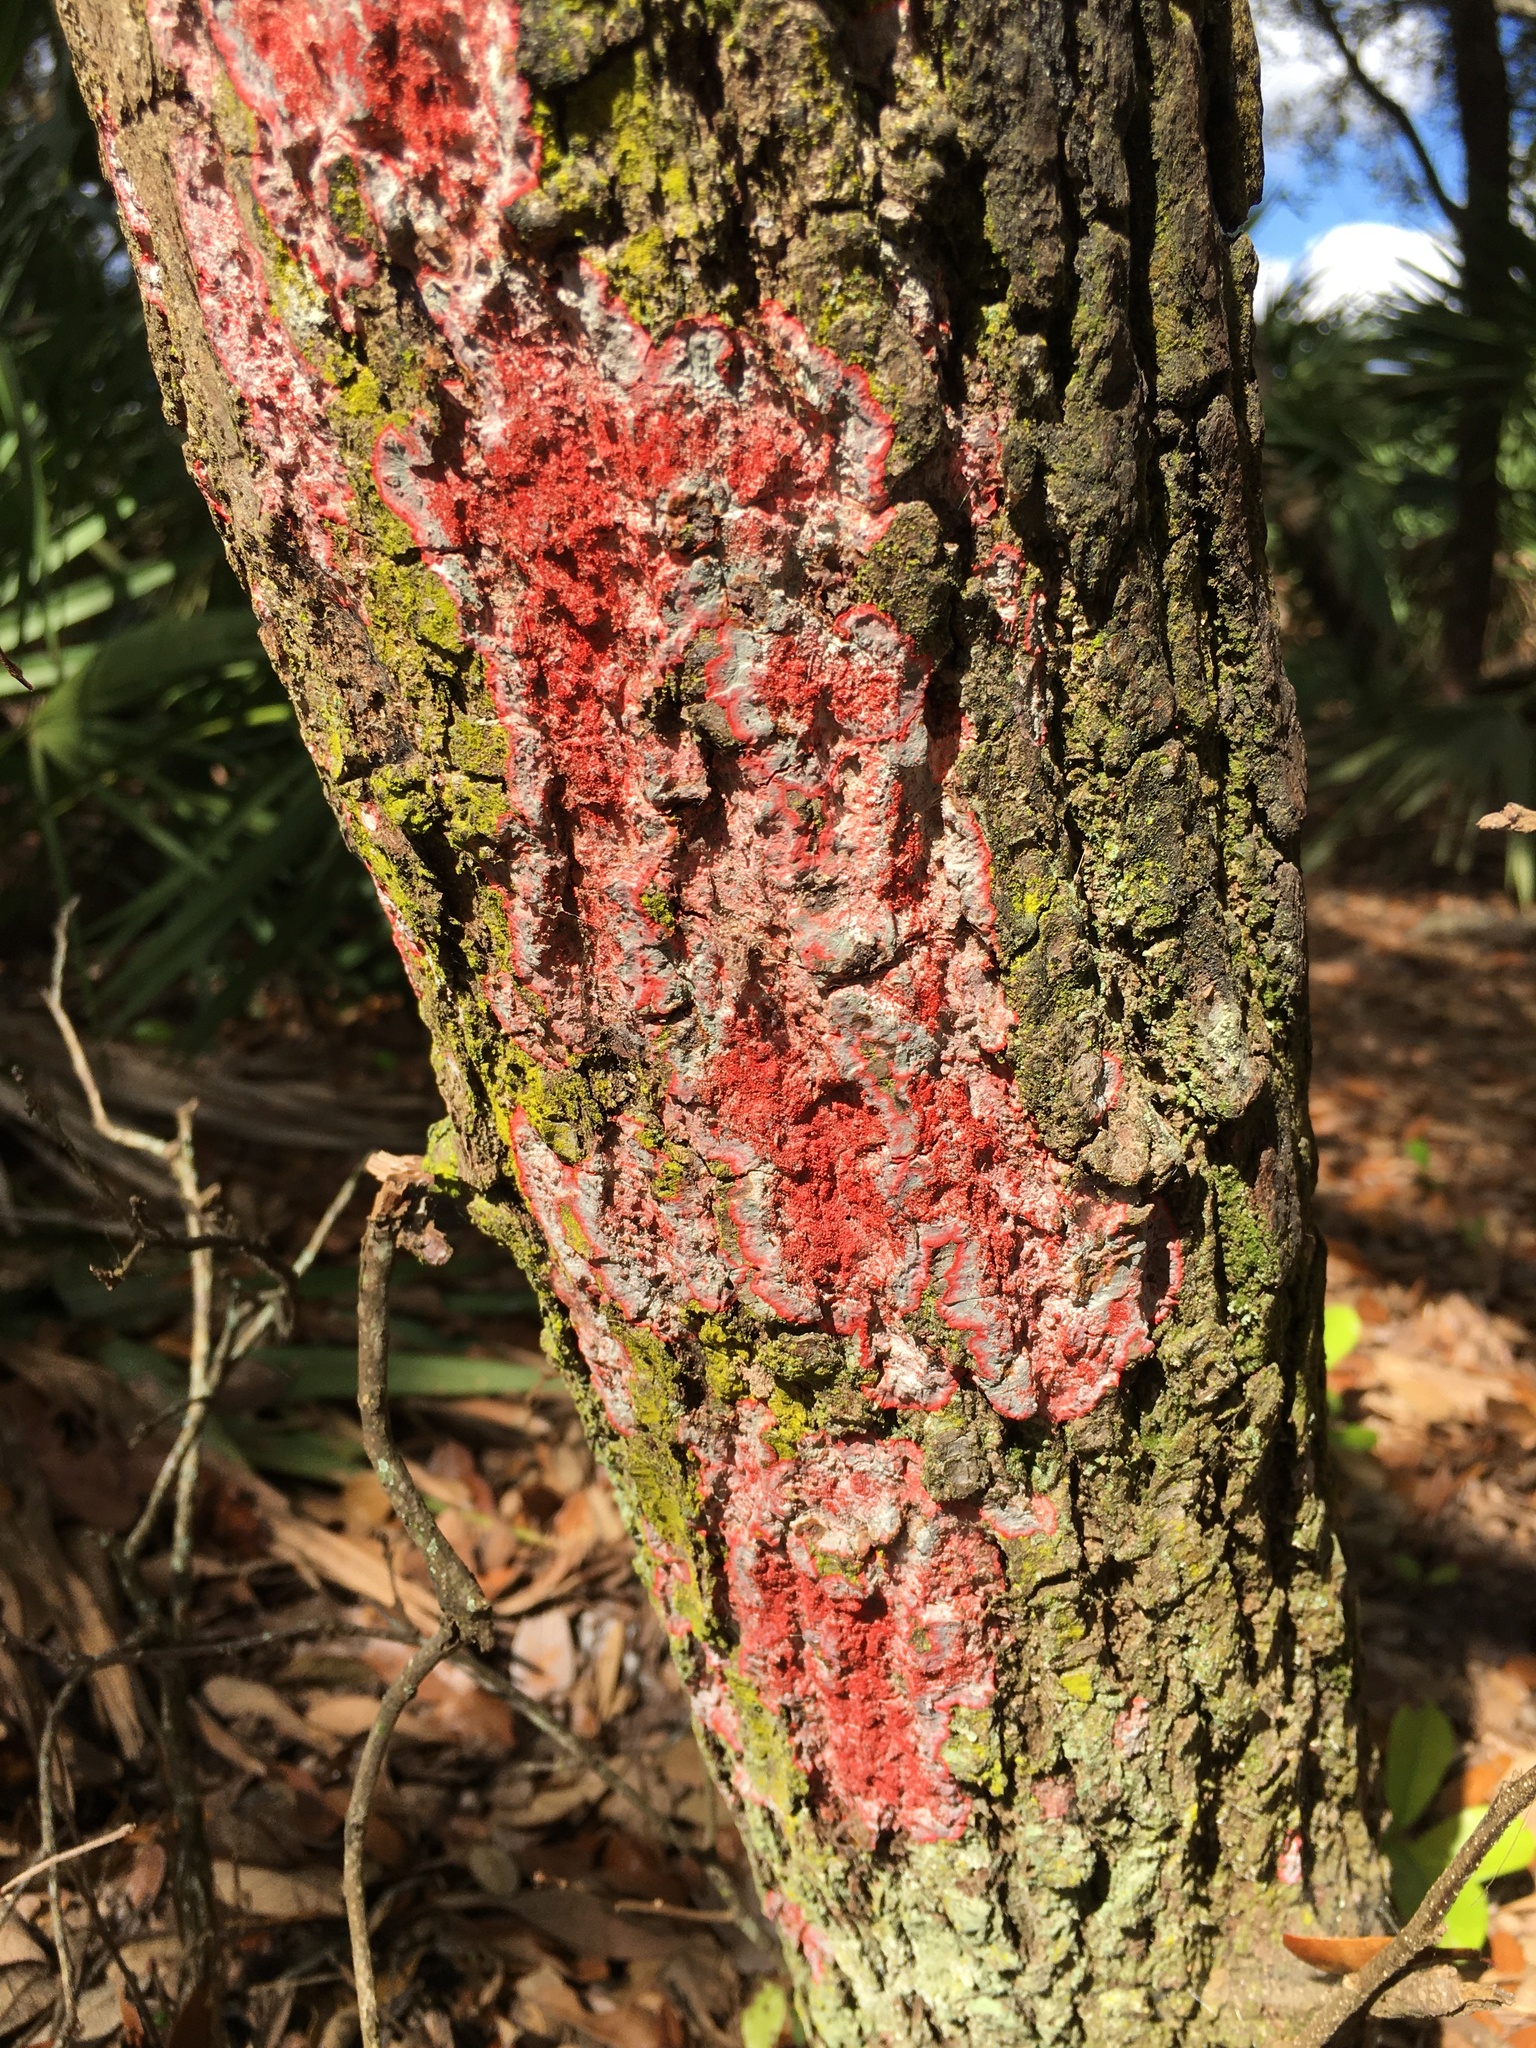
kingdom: Fungi
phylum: Ascomycota
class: Arthoniomycetes
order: Arthoniales
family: Arthoniaceae
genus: Herpothallon
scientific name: Herpothallon rubrocinctum
